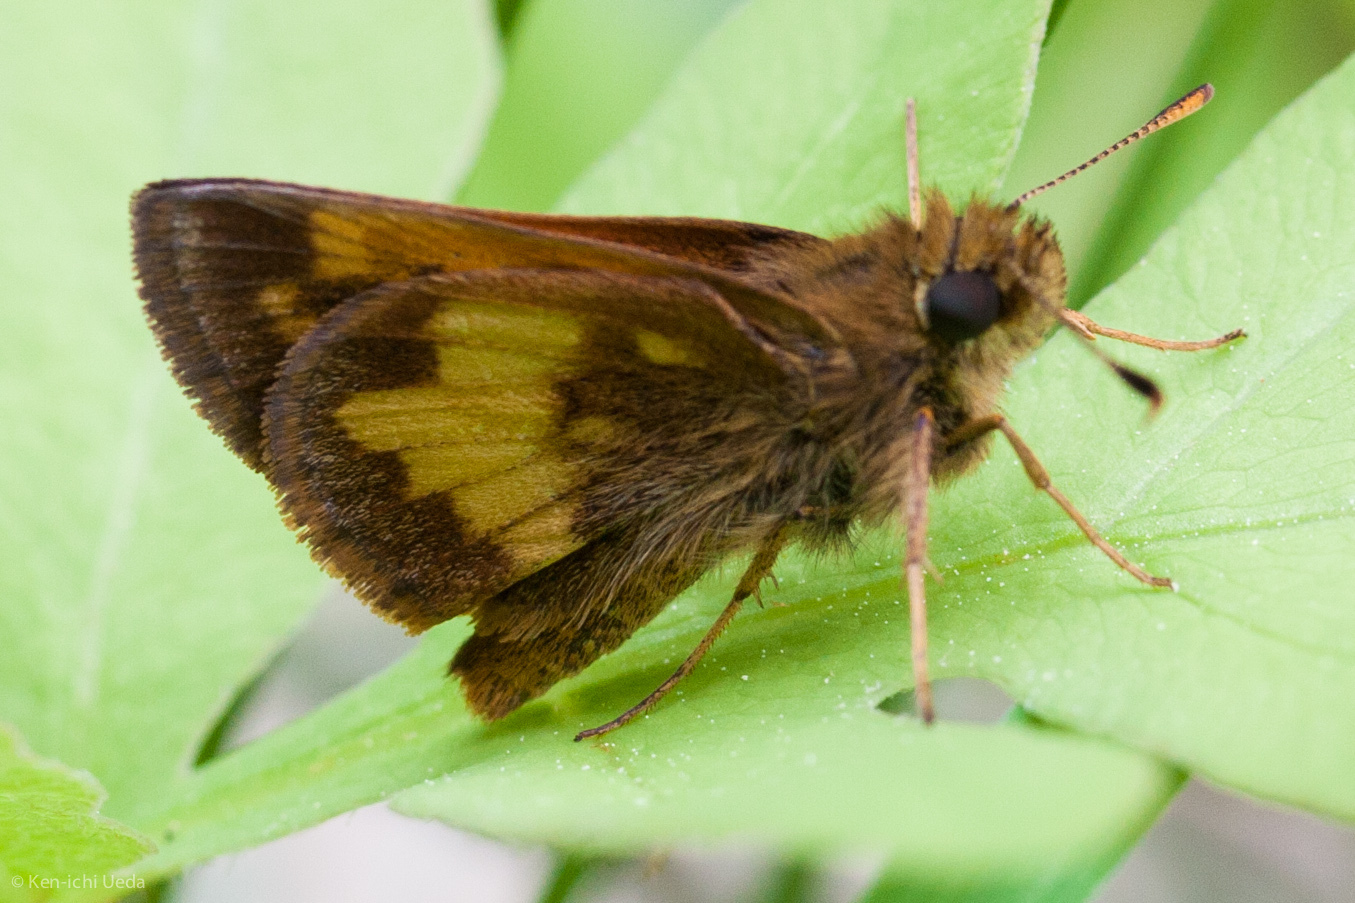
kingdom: Animalia
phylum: Arthropoda
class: Insecta
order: Lepidoptera
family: Hesperiidae
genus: Lon
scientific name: Lon hobomok
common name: Hobomok skipper
